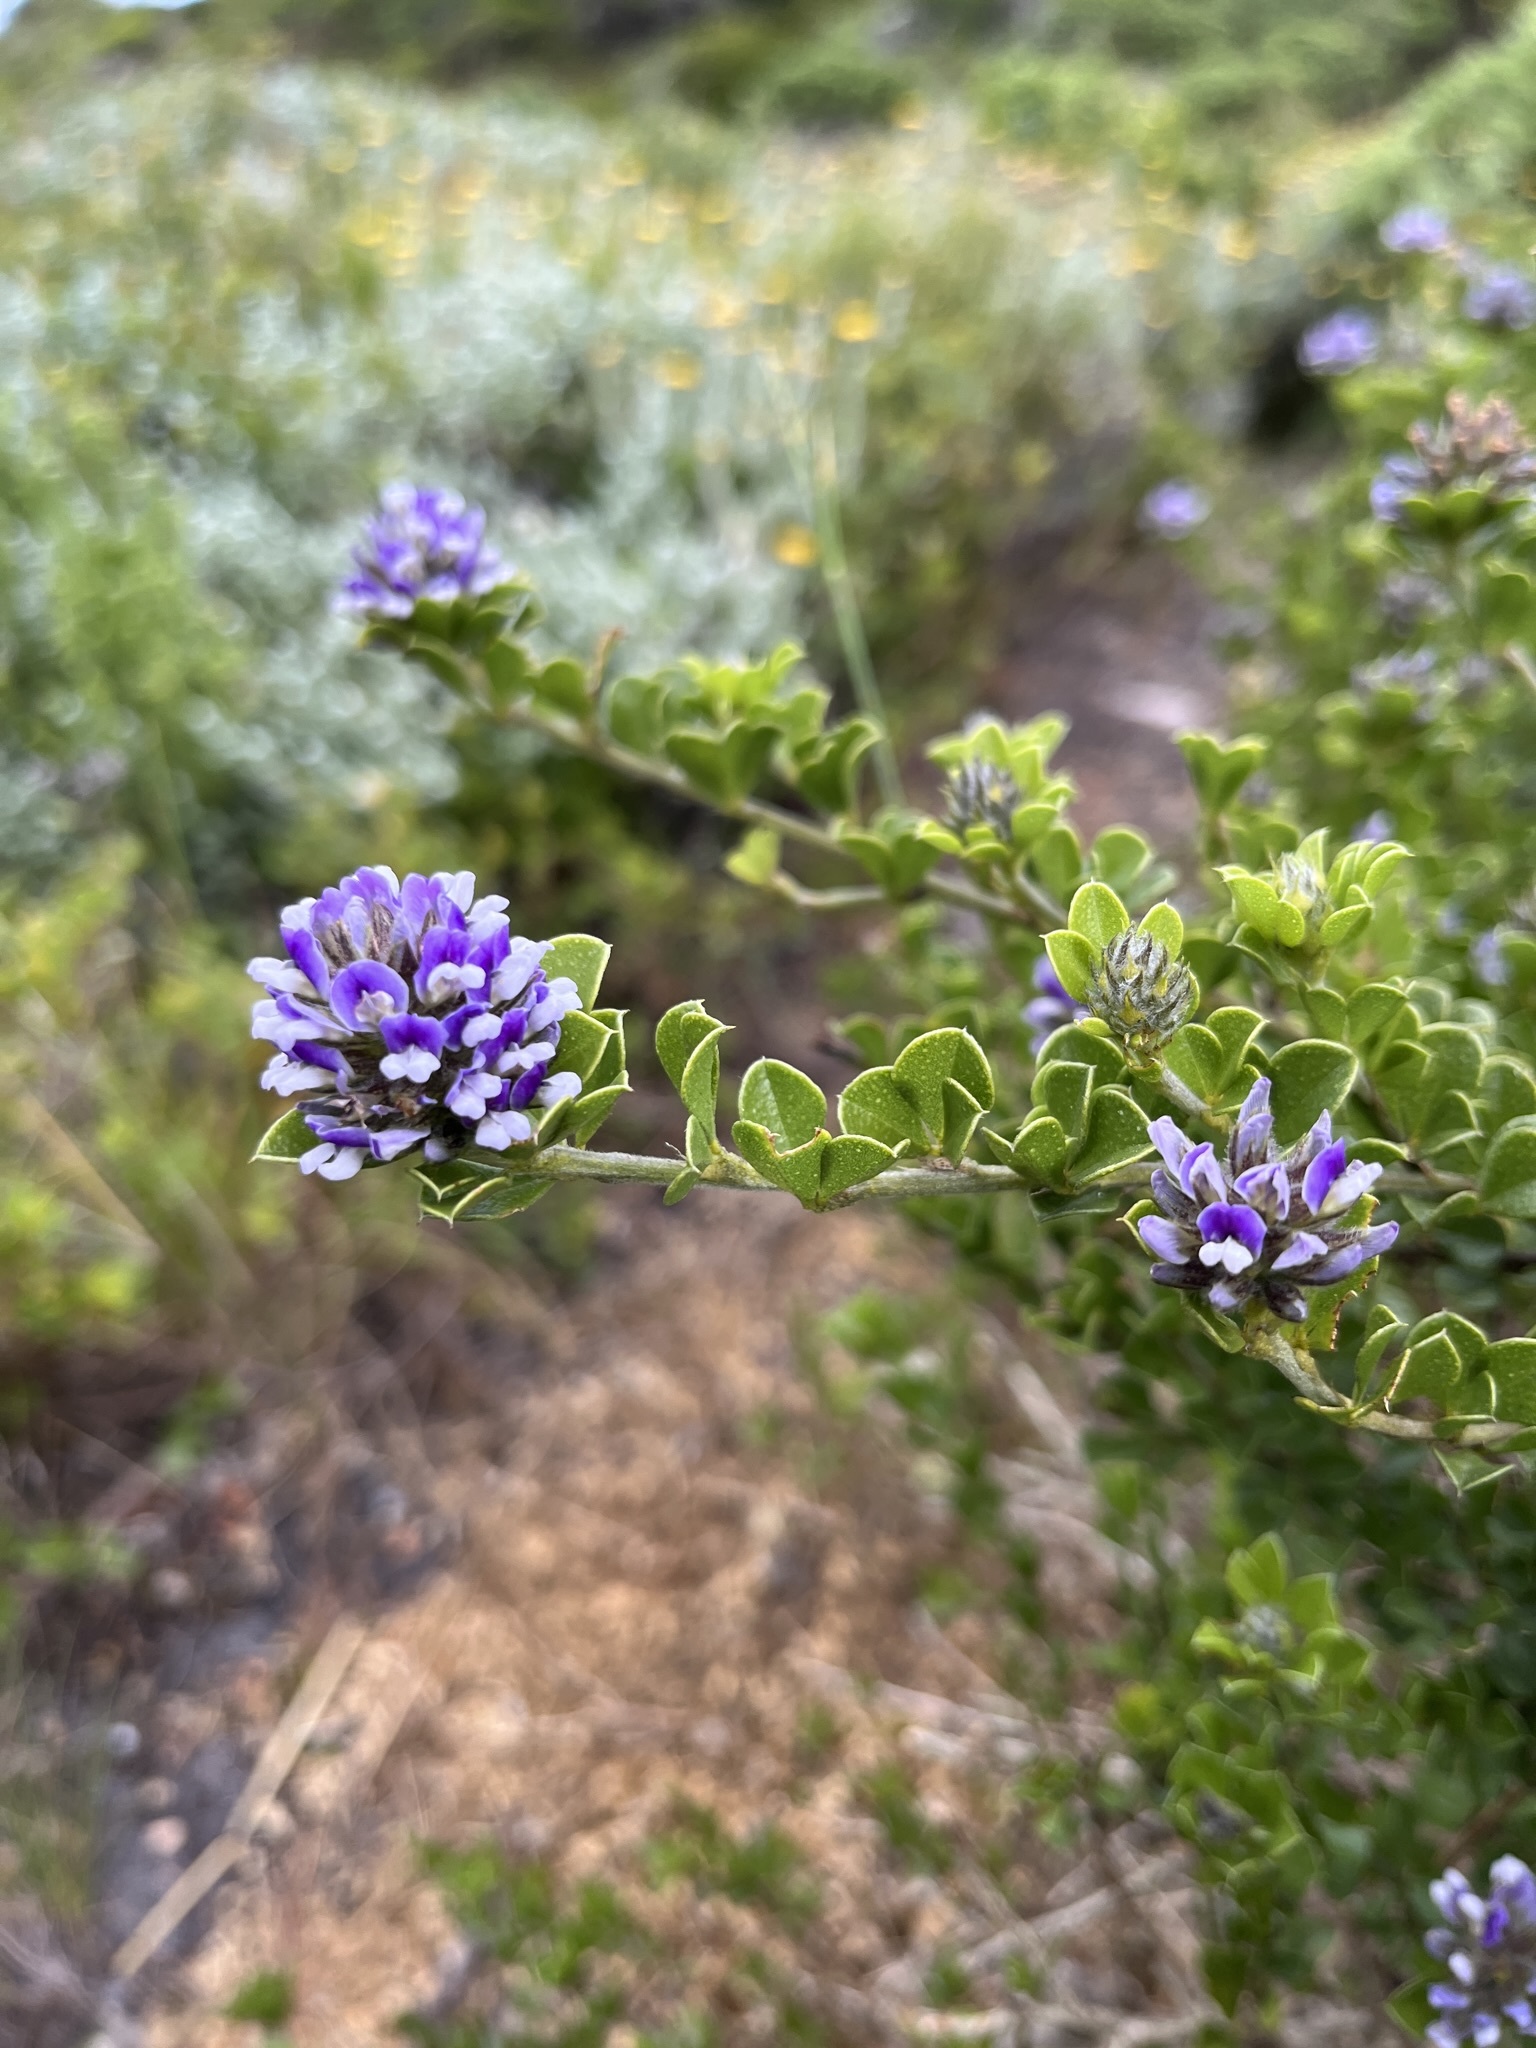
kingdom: Plantae
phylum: Tracheophyta
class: Magnoliopsida
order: Fabales
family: Fabaceae
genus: Psoralea
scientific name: Psoralea bracteolata
